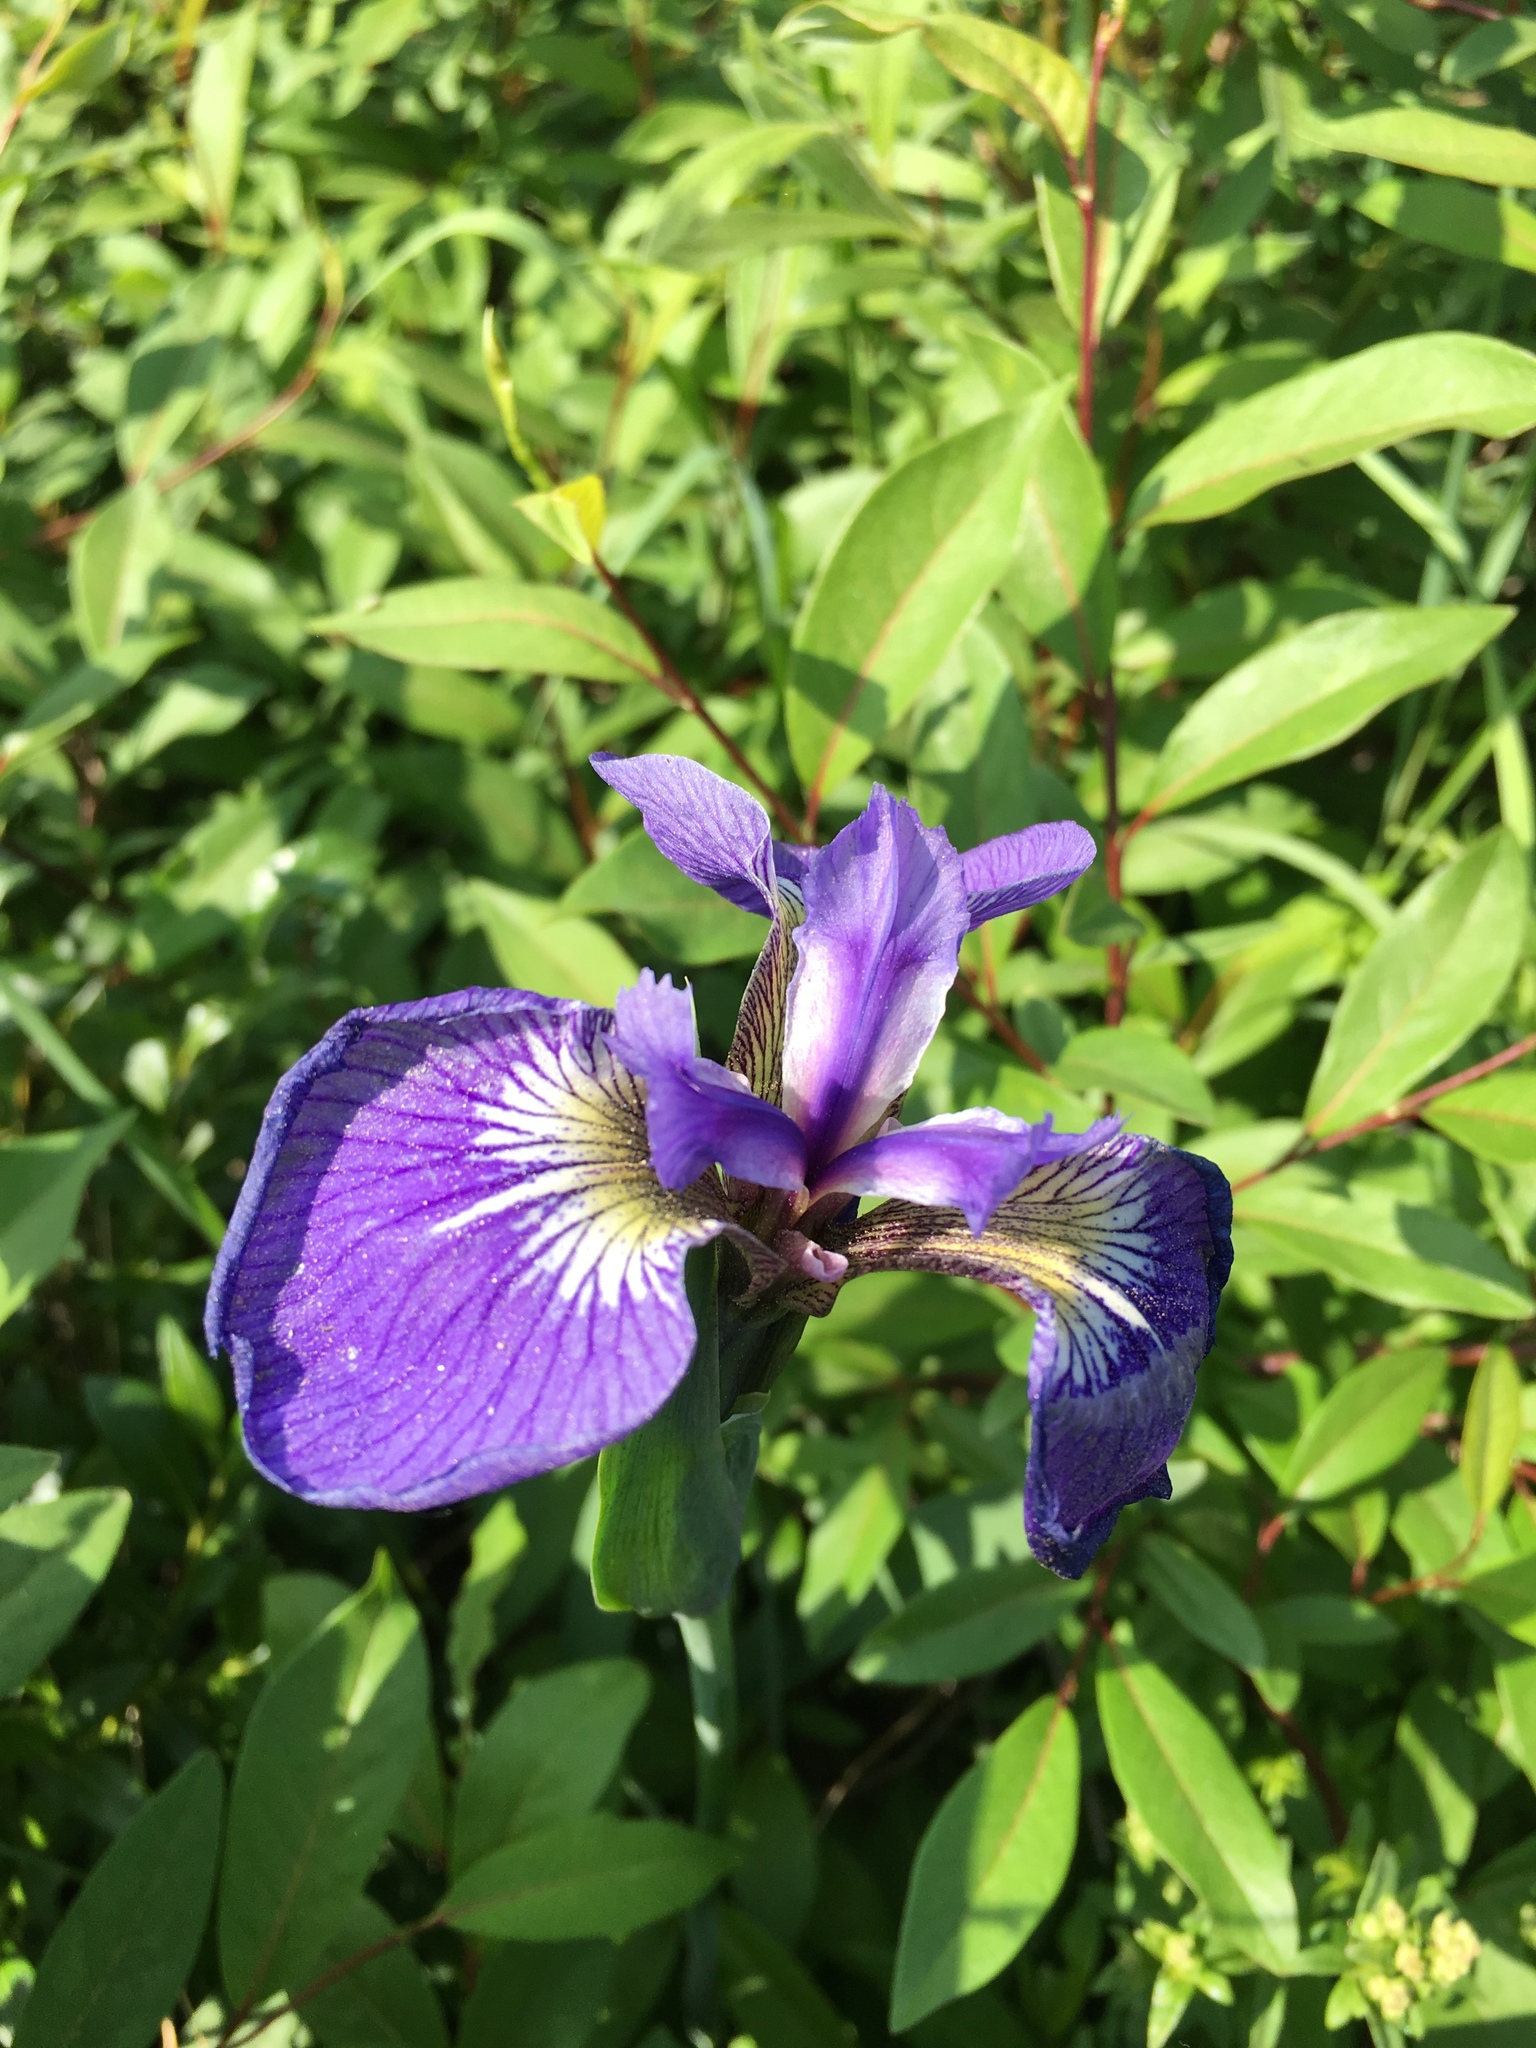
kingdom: Plantae
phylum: Tracheophyta
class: Liliopsida
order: Asparagales
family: Iridaceae
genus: Iris
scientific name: Iris setosa
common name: Arctic blue flag
